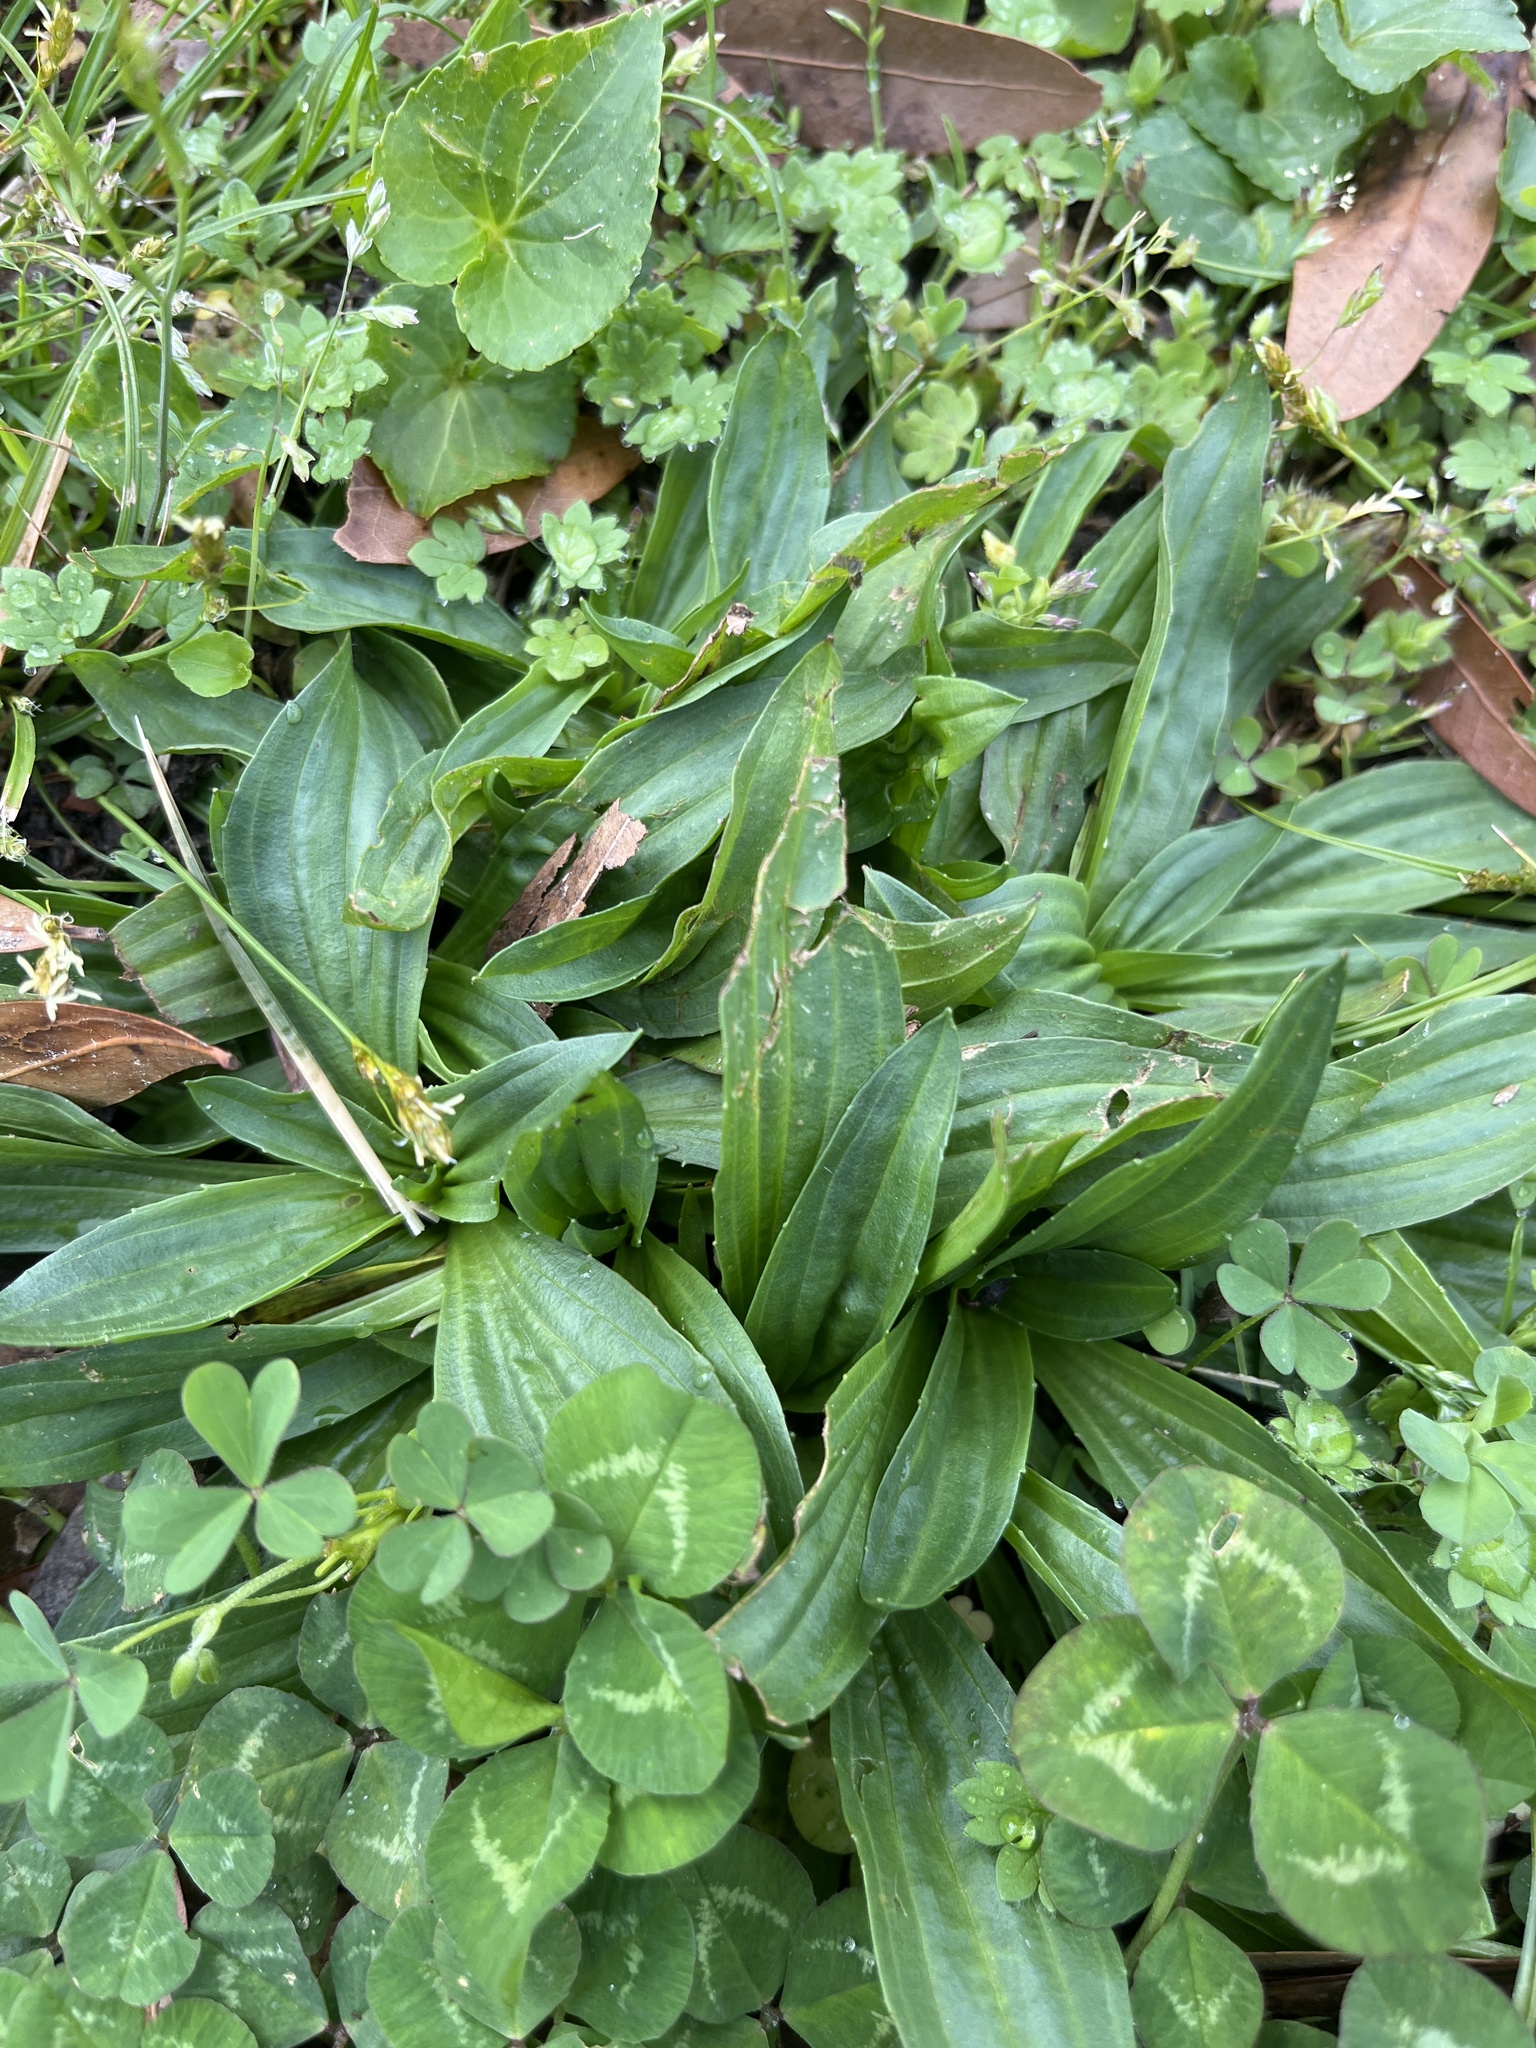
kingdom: Plantae
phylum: Tracheophyta
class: Magnoliopsida
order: Lamiales
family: Plantaginaceae
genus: Plantago
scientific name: Plantago lanceolata
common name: Ribwort plantain
